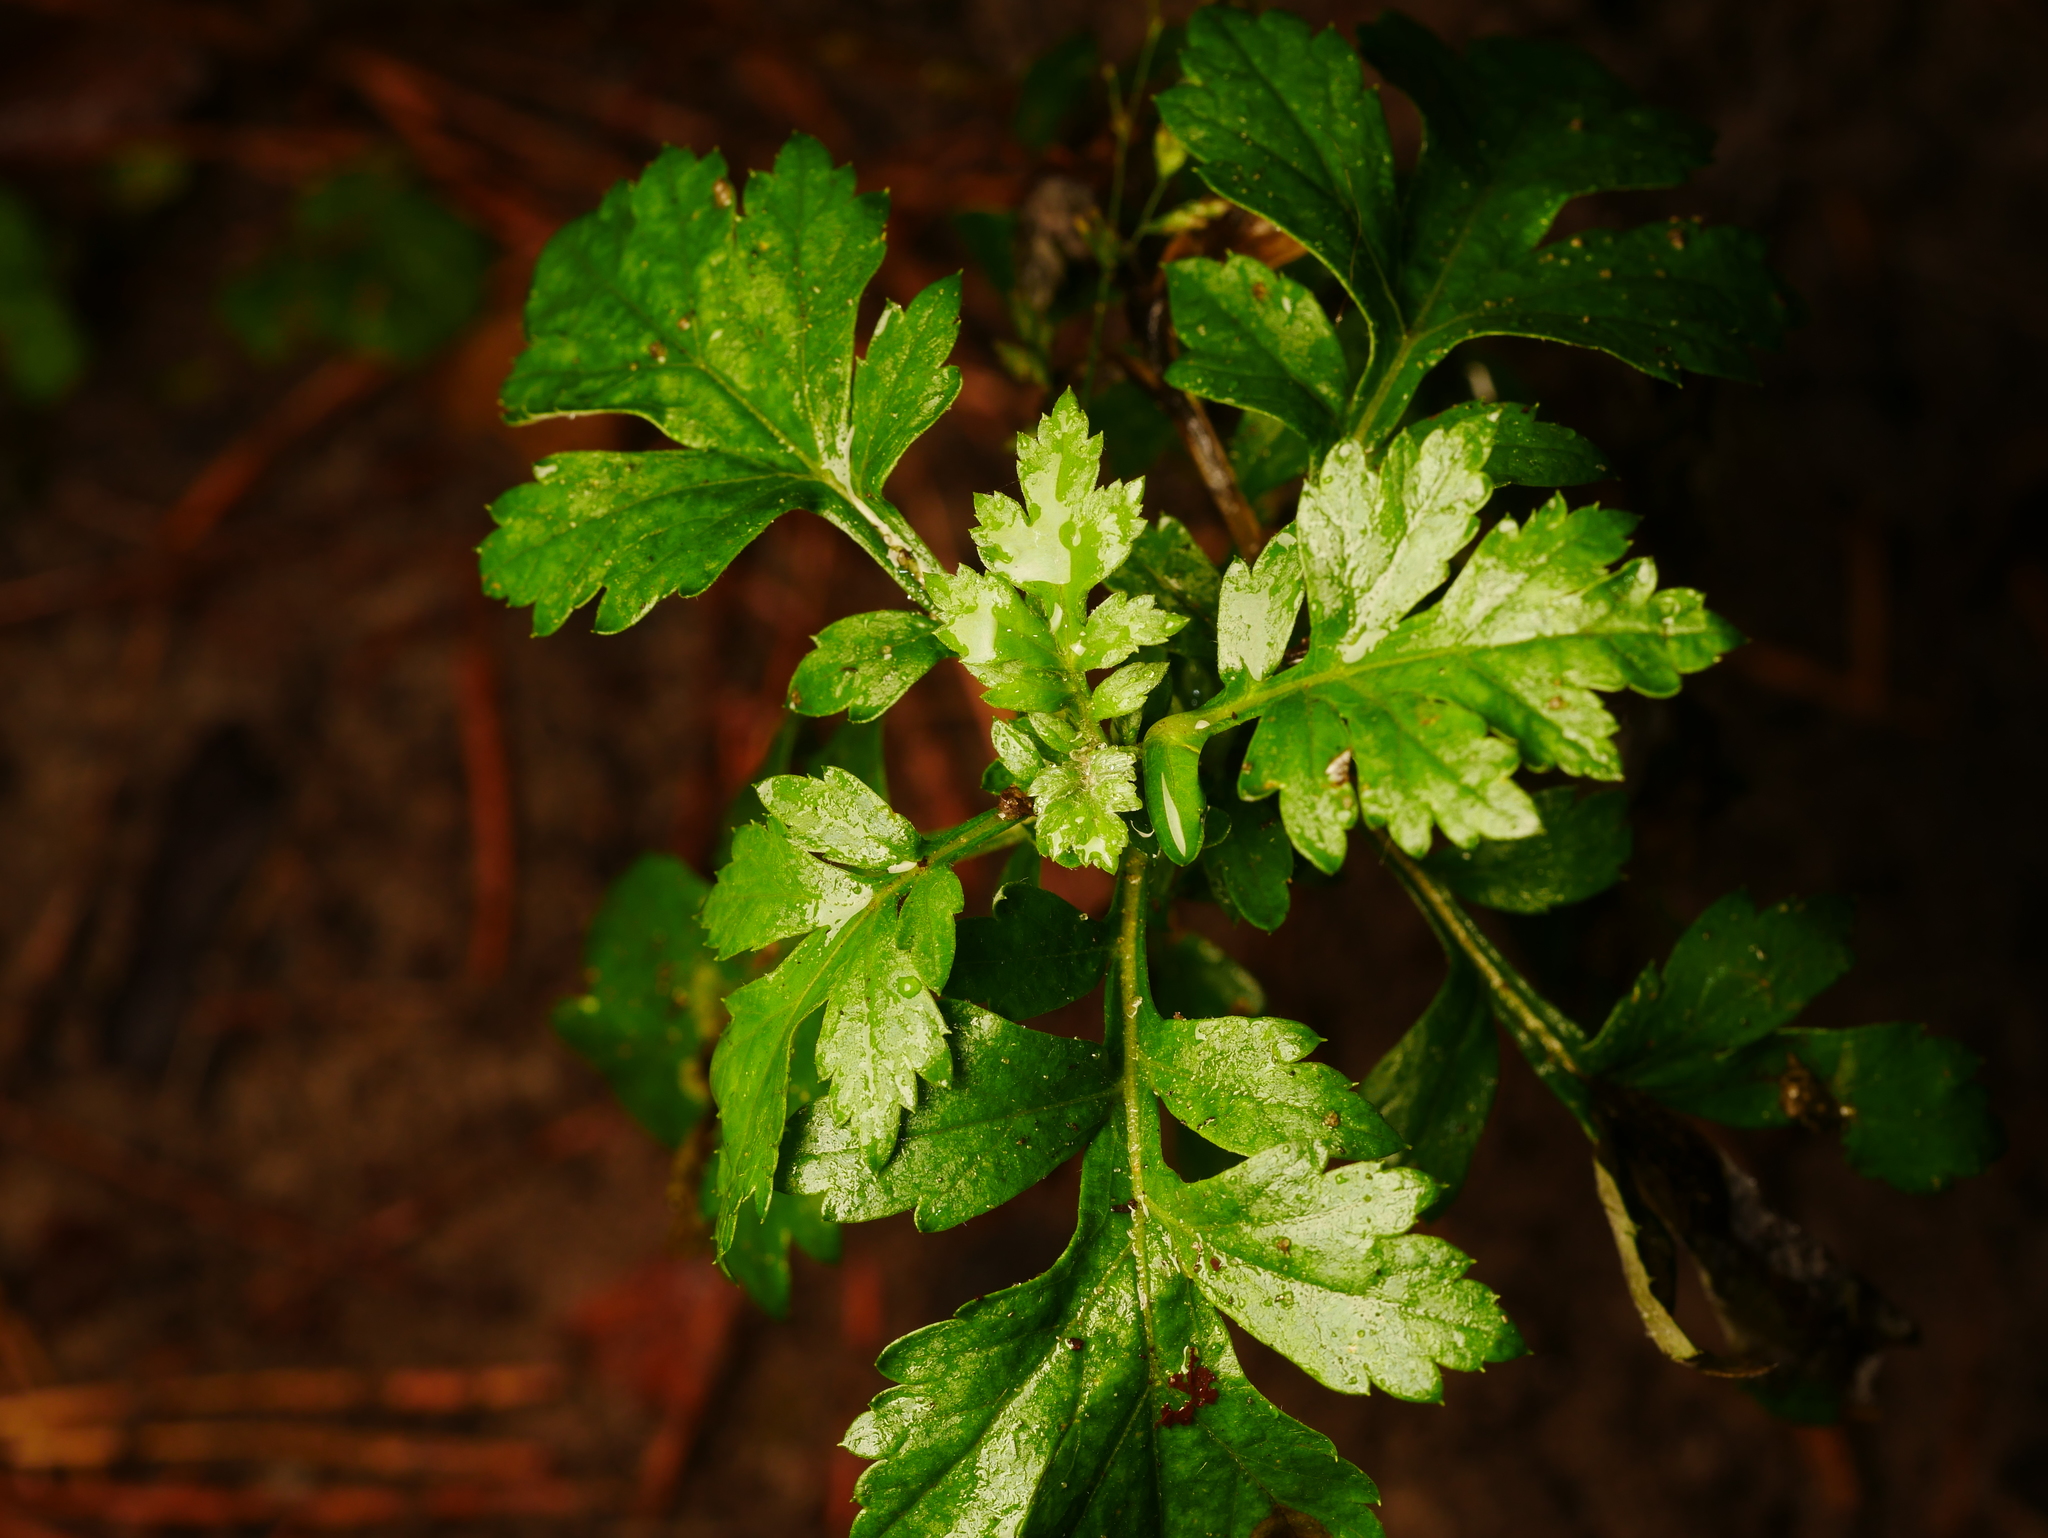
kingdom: Plantae
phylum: Tracheophyta
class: Magnoliopsida
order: Asterales
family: Asteraceae
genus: Artemisia
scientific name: Artemisia vulgaris
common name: Mugwort
